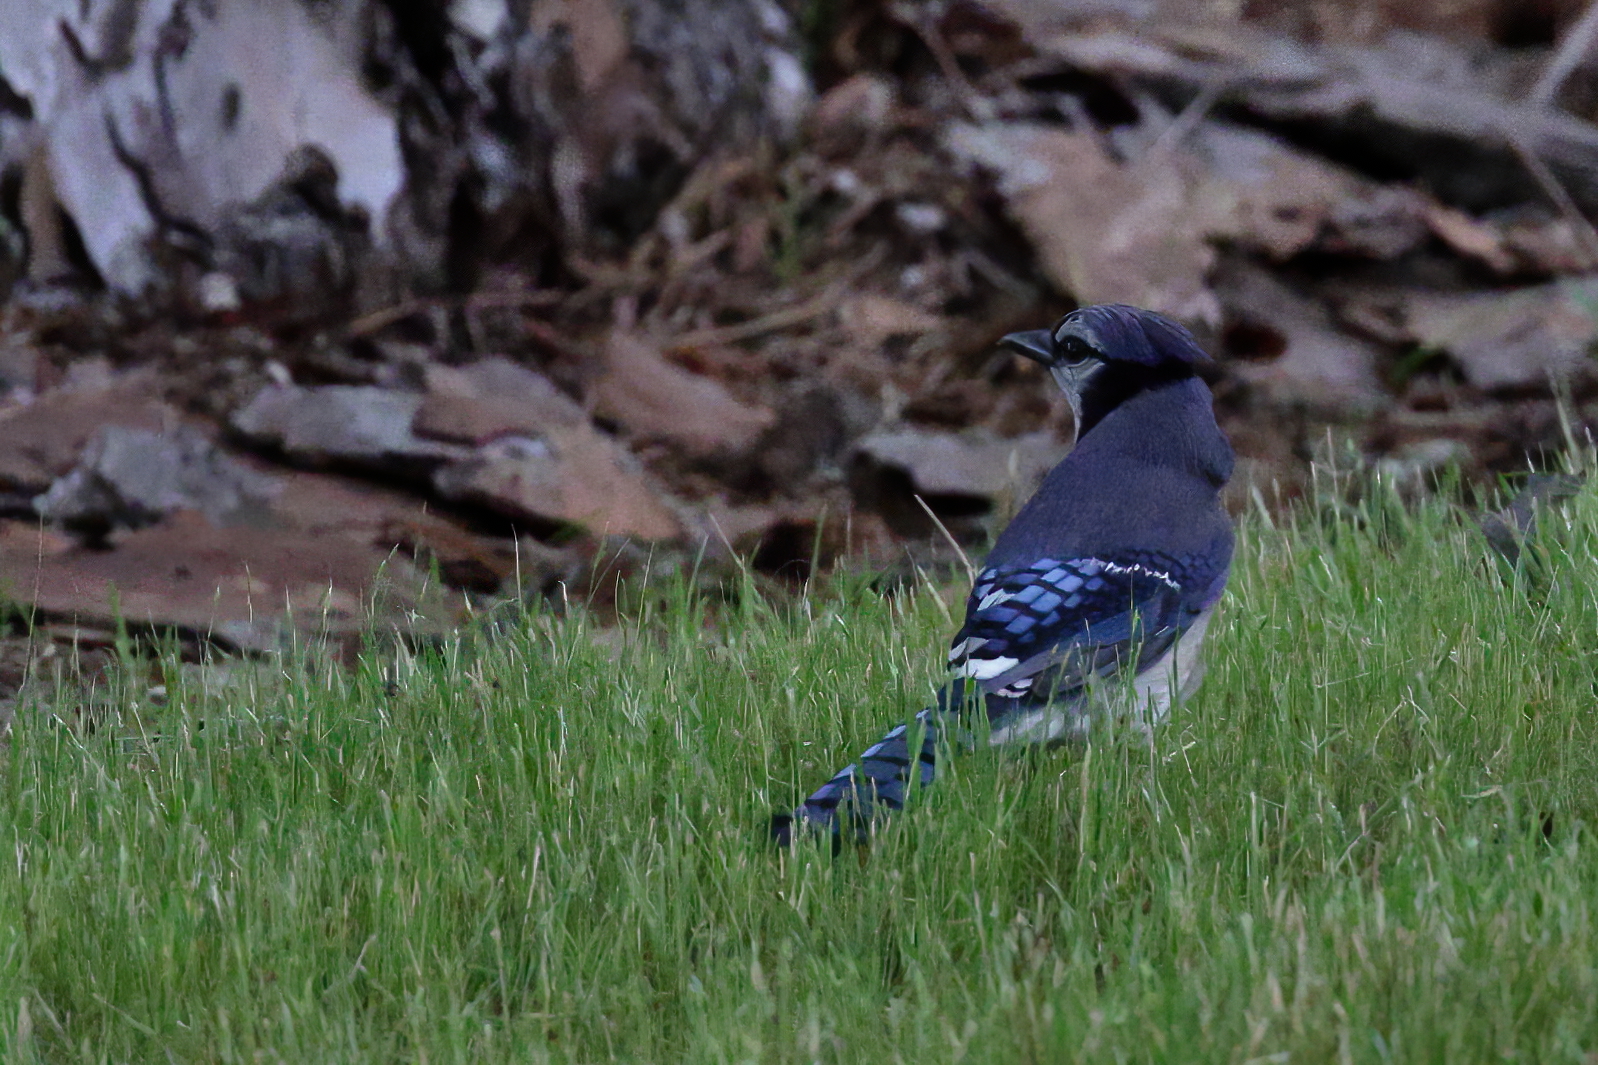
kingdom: Animalia
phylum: Chordata
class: Aves
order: Passeriformes
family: Corvidae
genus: Cyanocitta
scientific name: Cyanocitta cristata
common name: Blue jay
